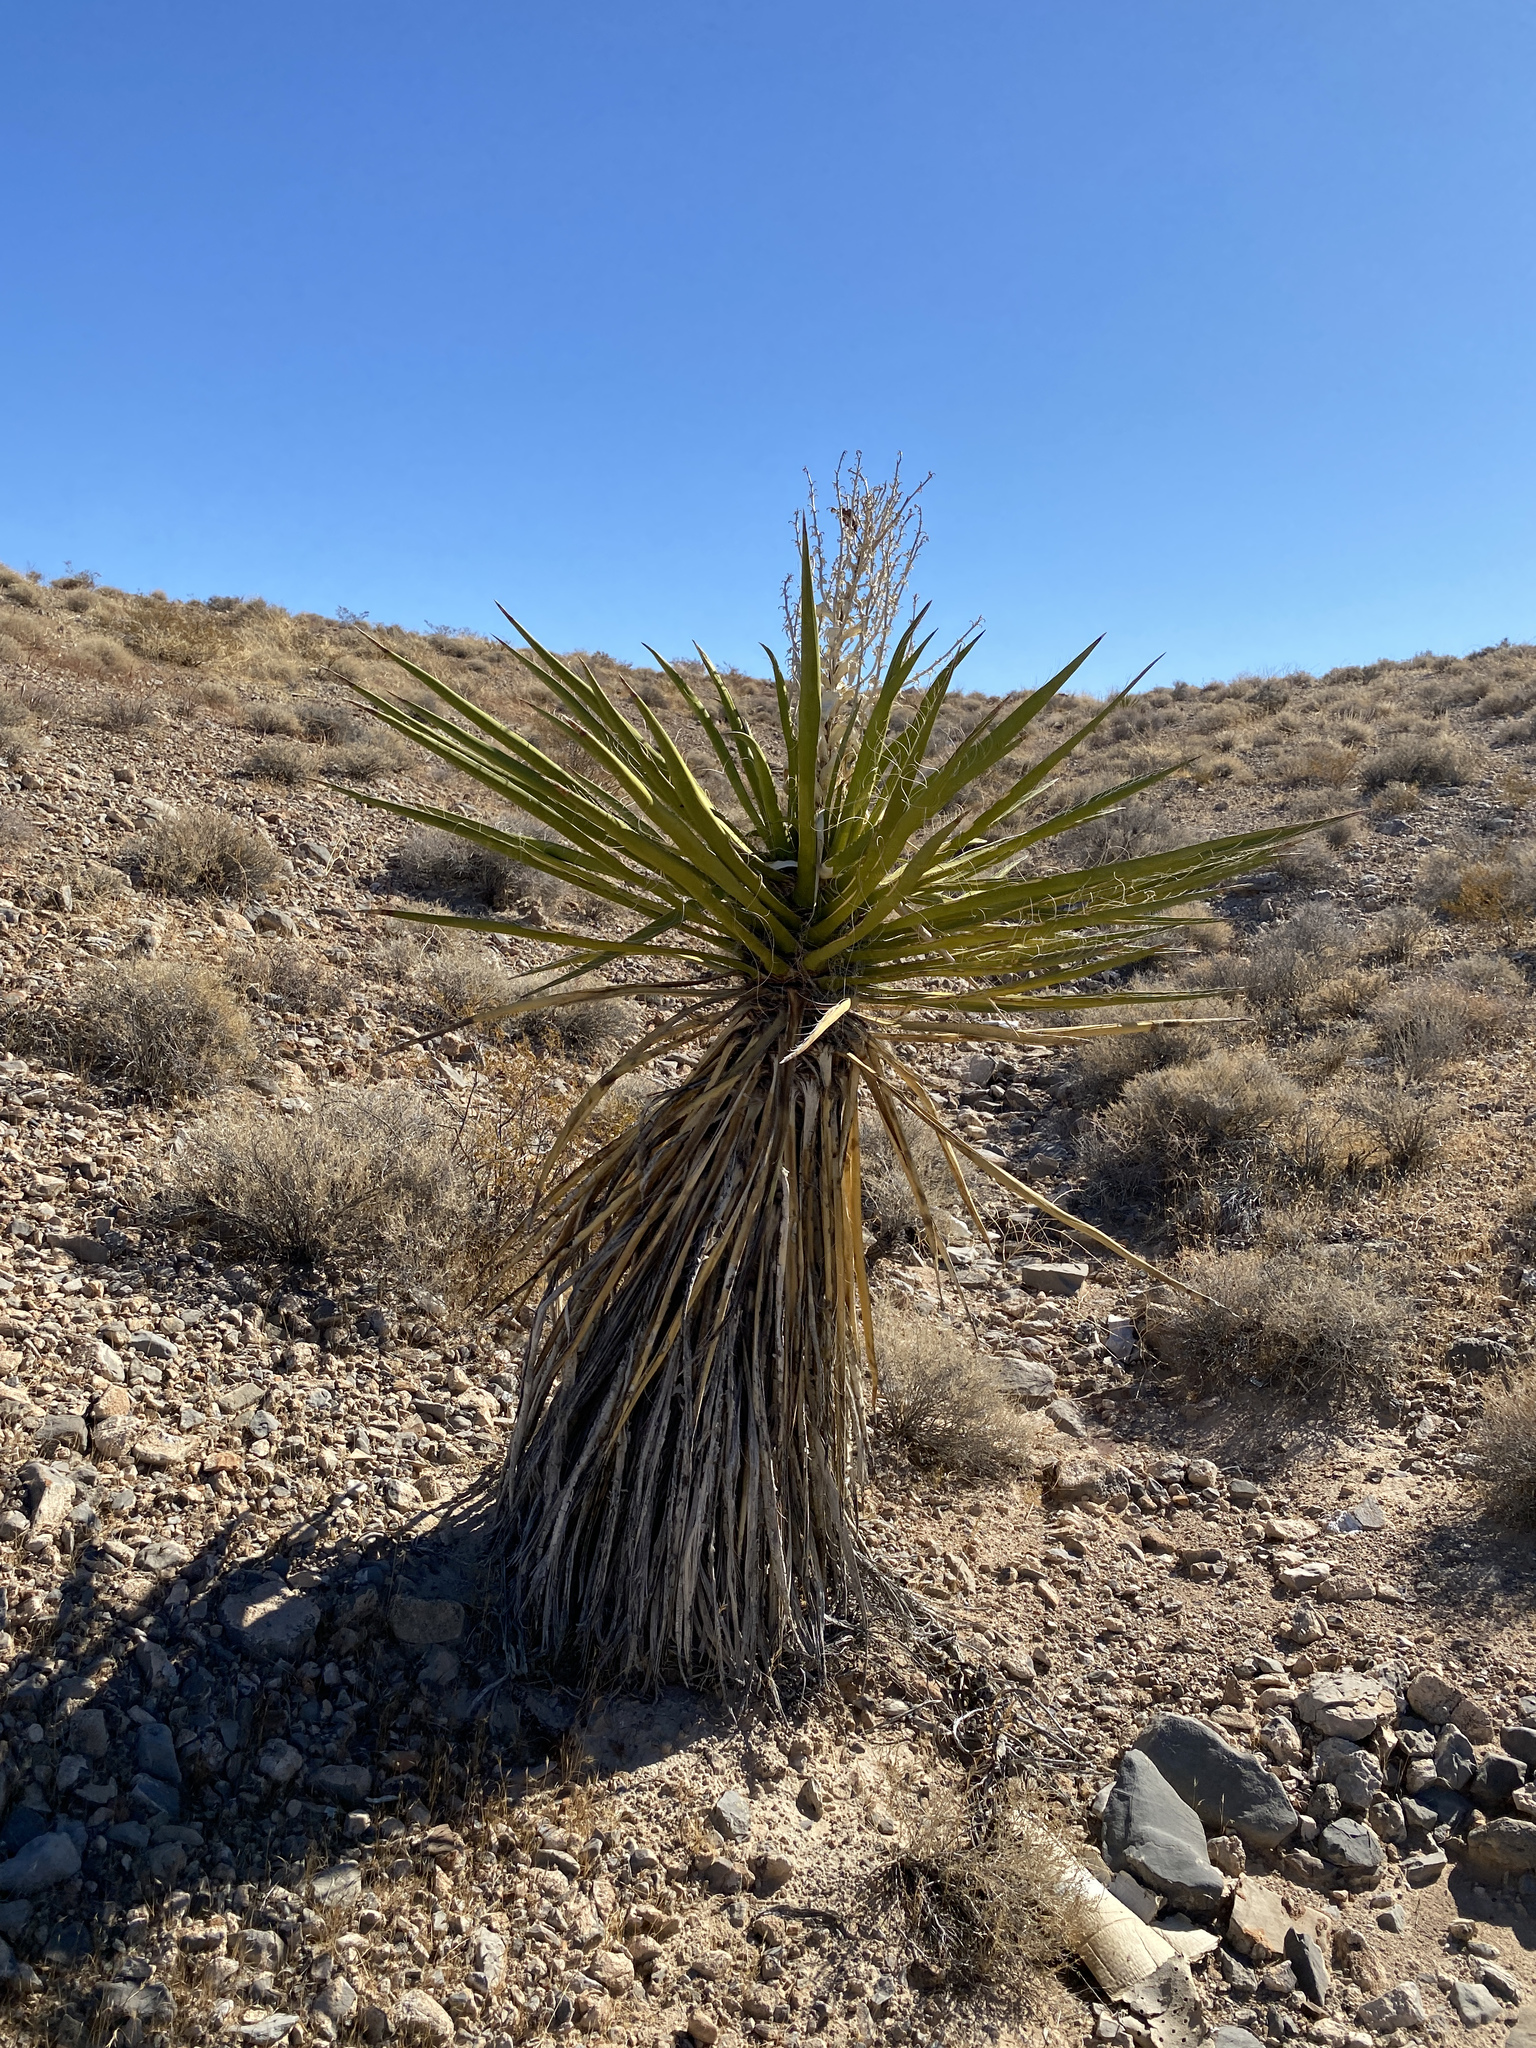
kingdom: Plantae
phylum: Tracheophyta
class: Liliopsida
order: Asparagales
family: Asparagaceae
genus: Yucca
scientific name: Yucca schidigera
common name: Mojave yucca
